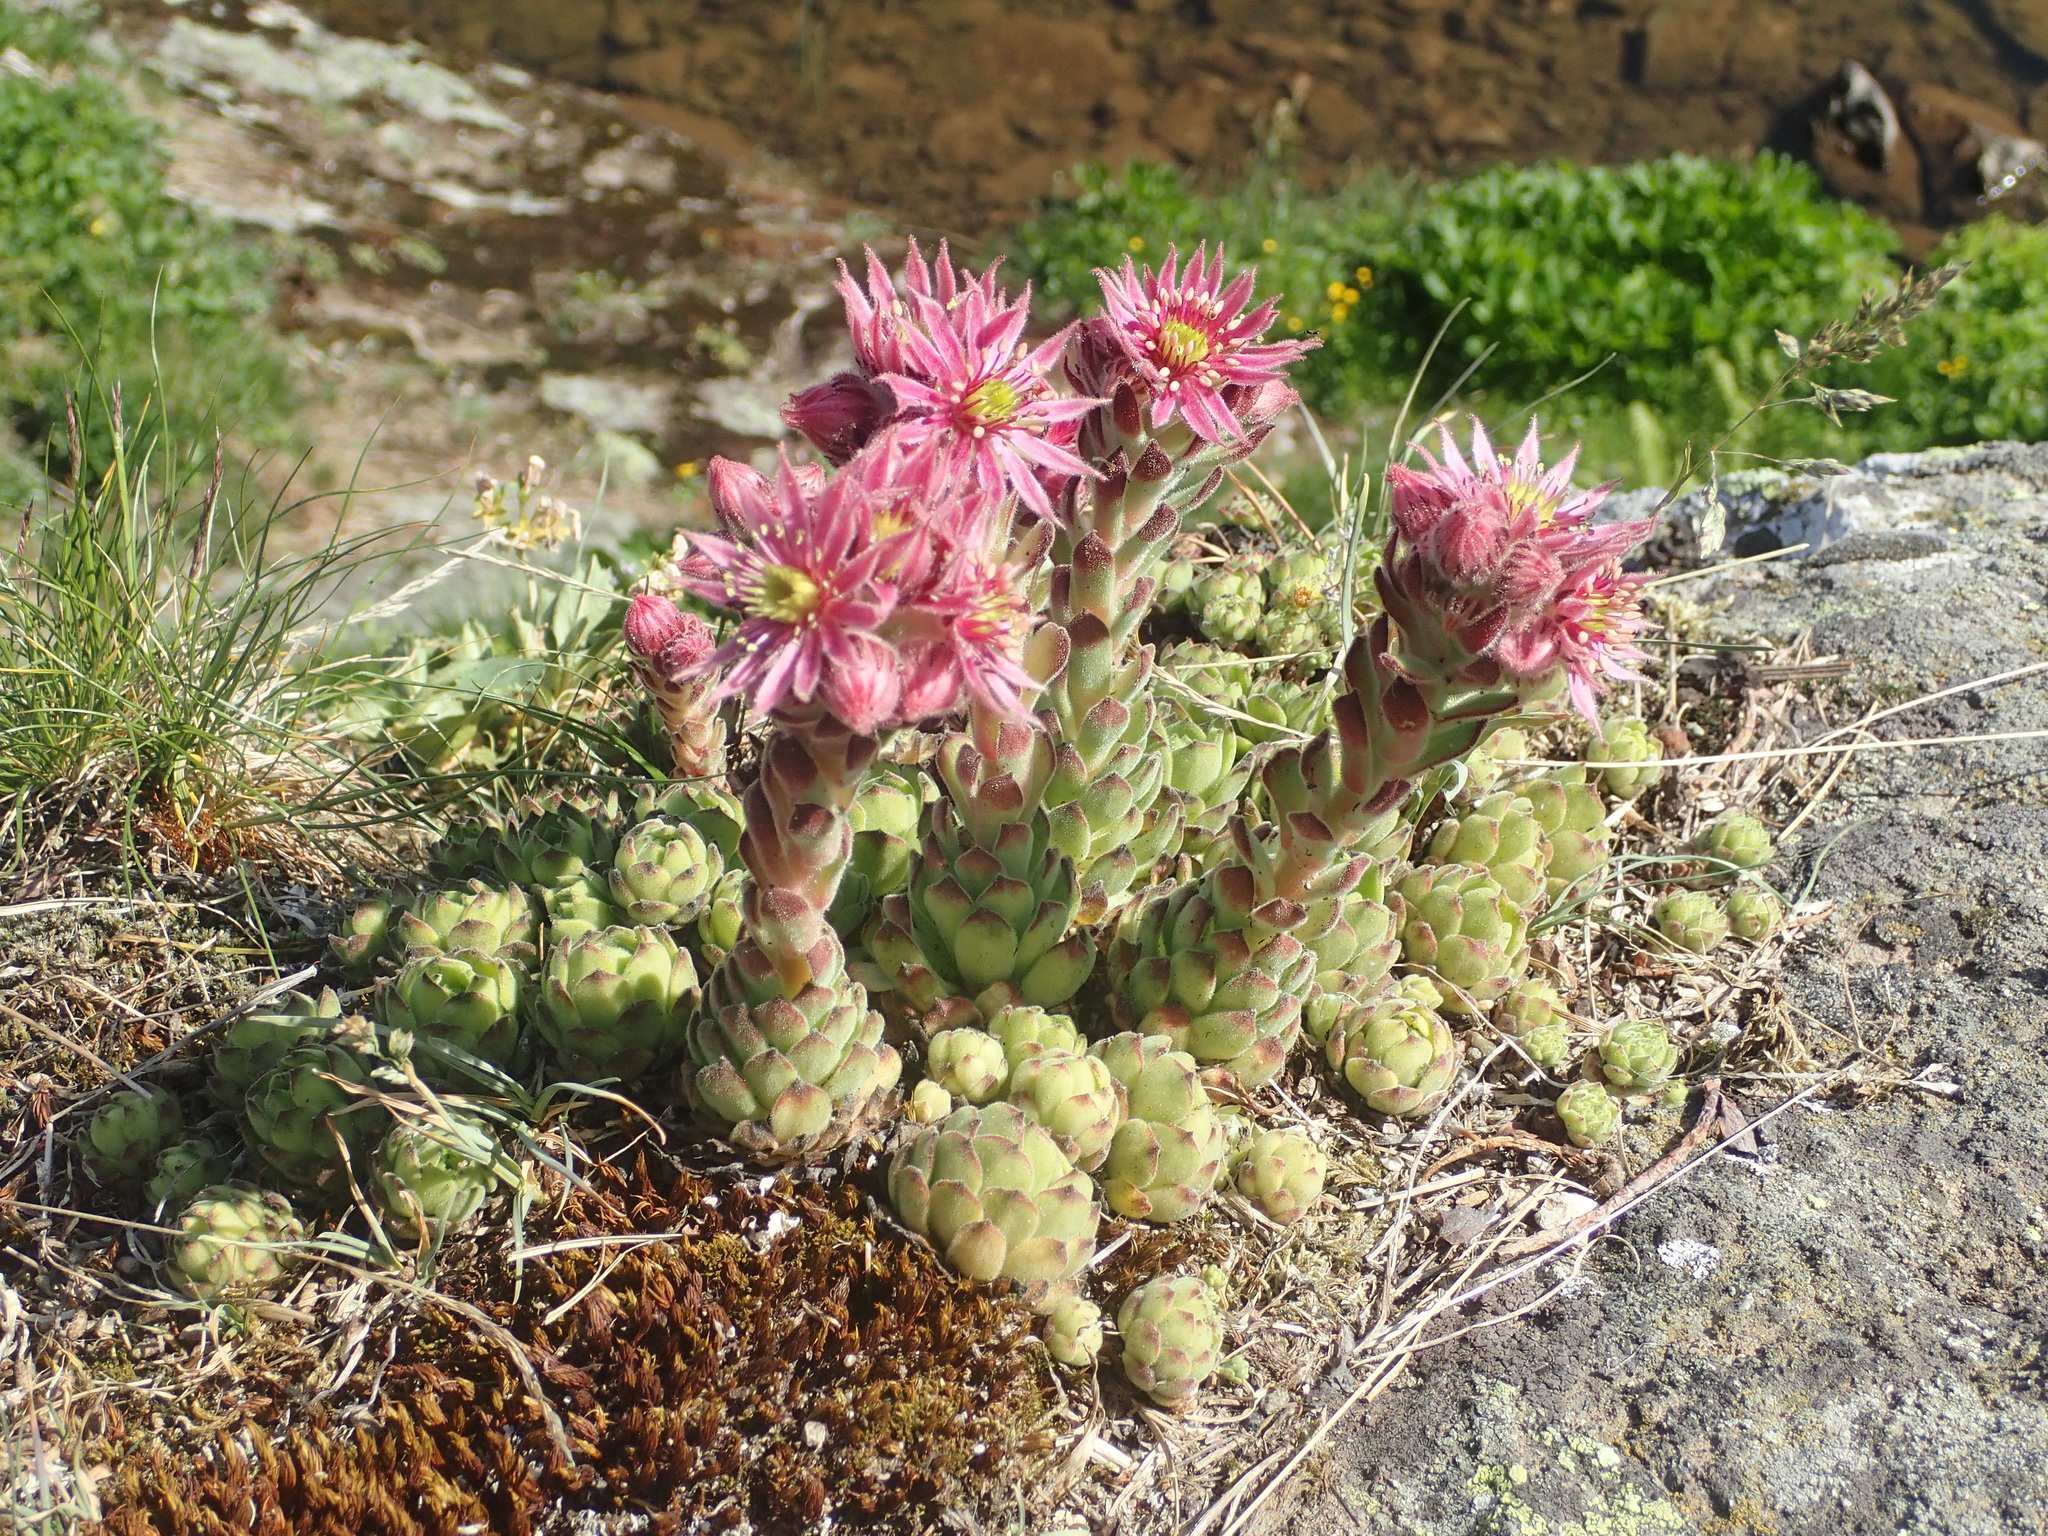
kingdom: Plantae
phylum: Tracheophyta
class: Magnoliopsida
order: Saxifragales
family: Crassulaceae
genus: Sempervivum
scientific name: Sempervivum montanum
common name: Mountain house-leek
